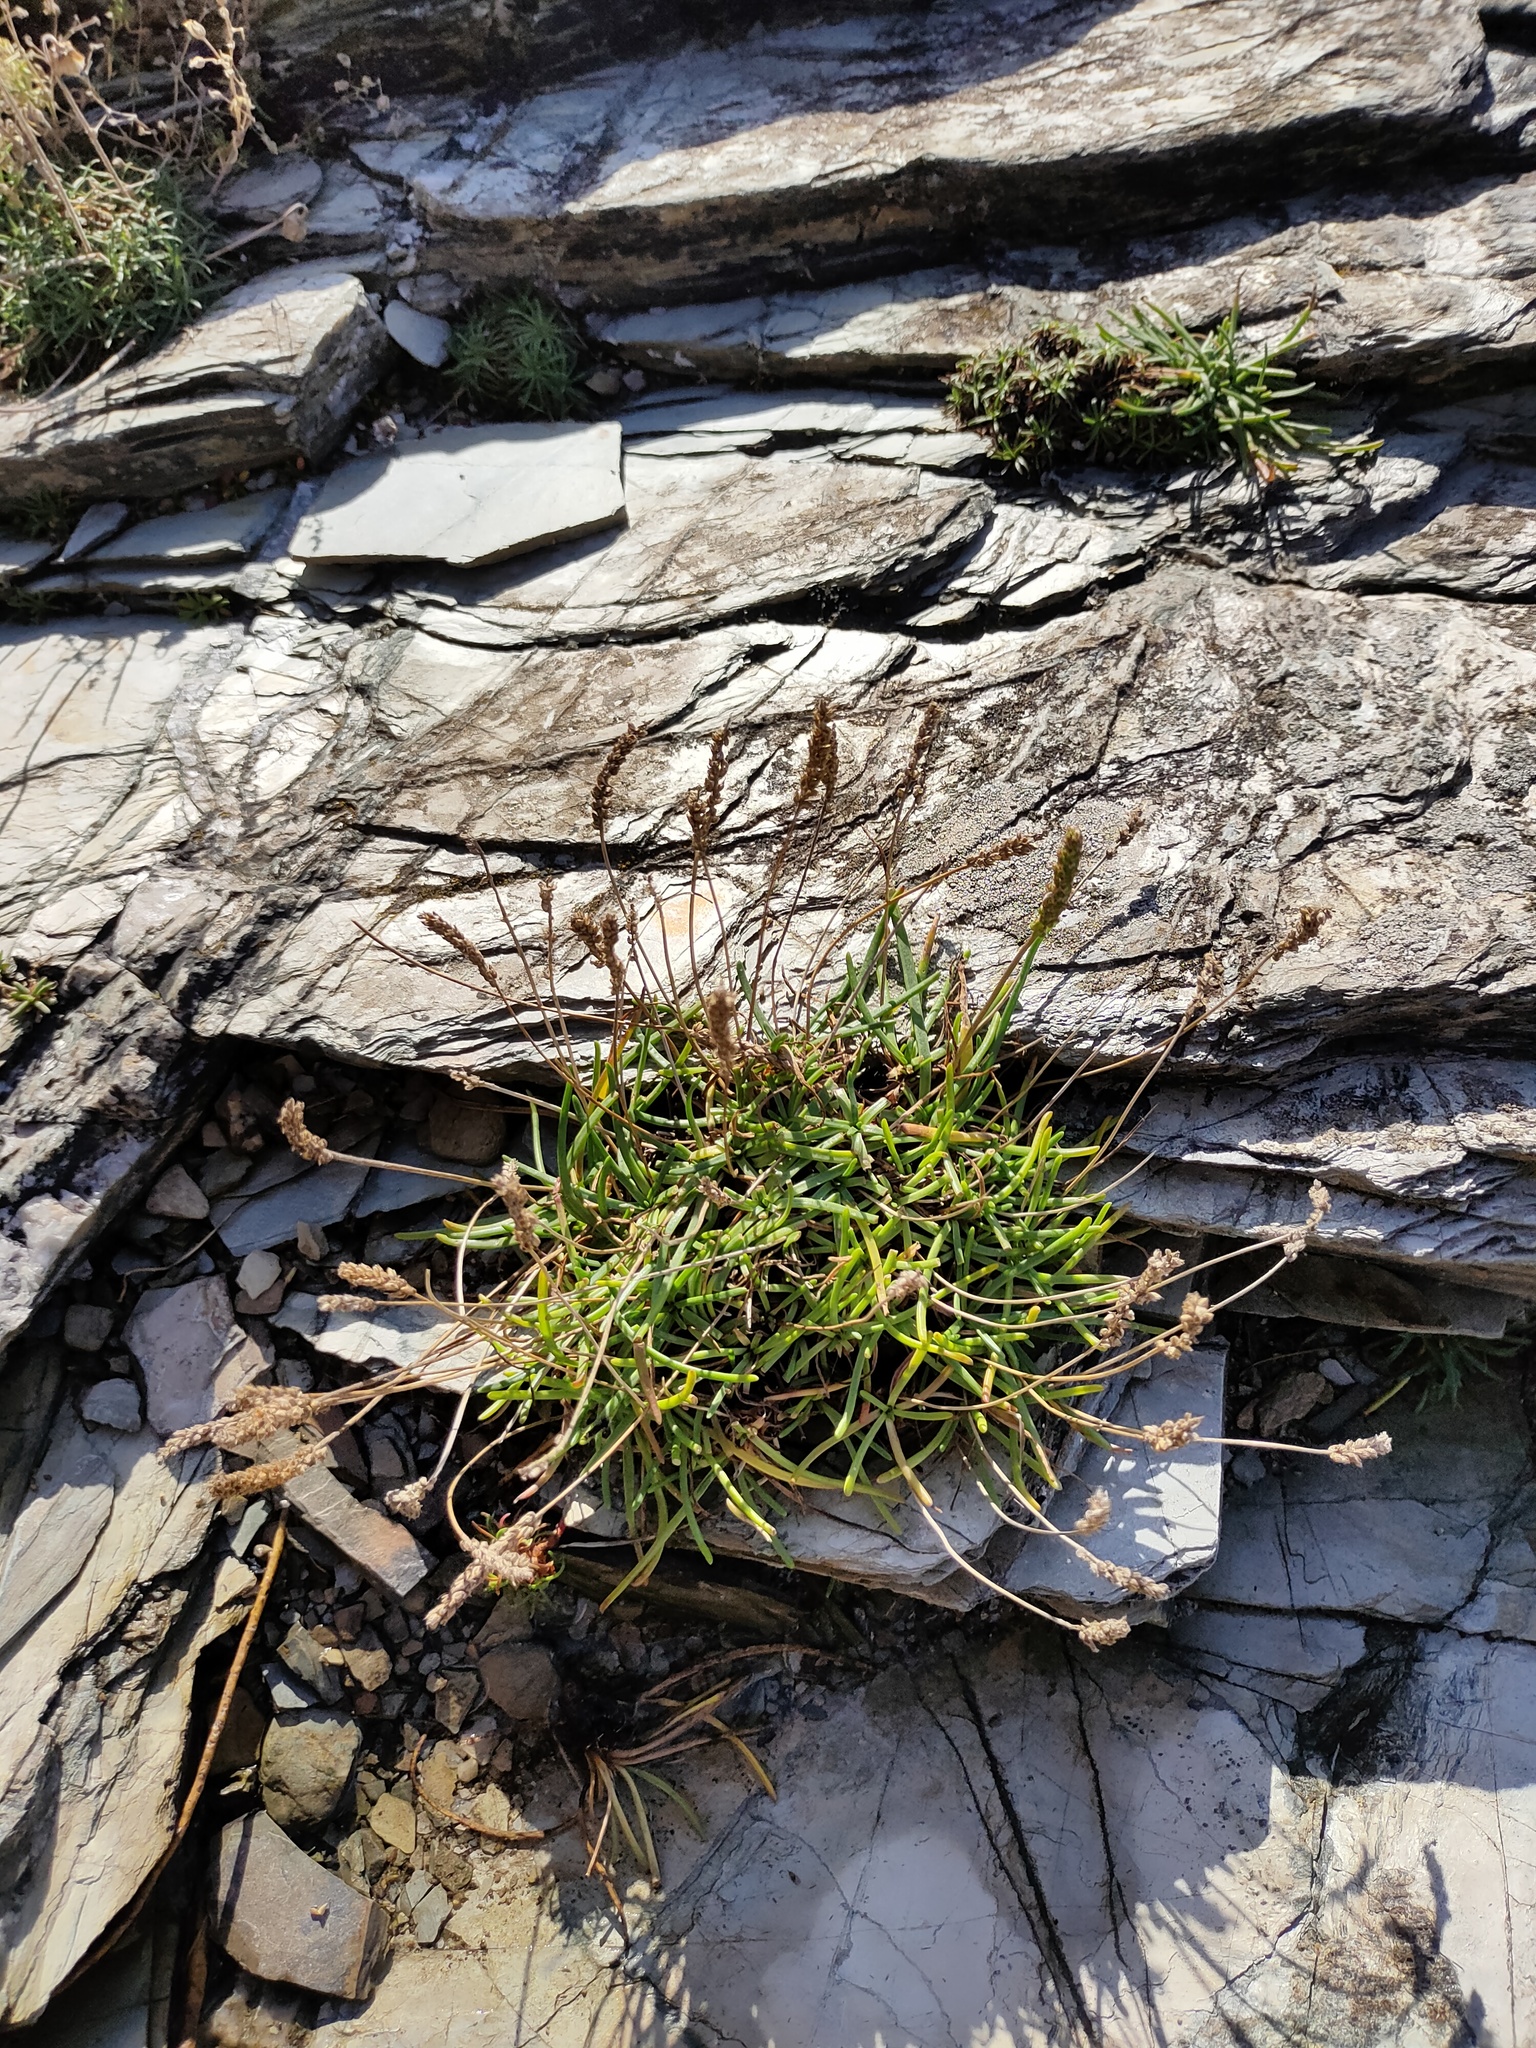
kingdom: Plantae
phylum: Tracheophyta
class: Magnoliopsida
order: Lamiales
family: Plantaginaceae
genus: Plantago
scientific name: Plantago maritima
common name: Sea plantain
